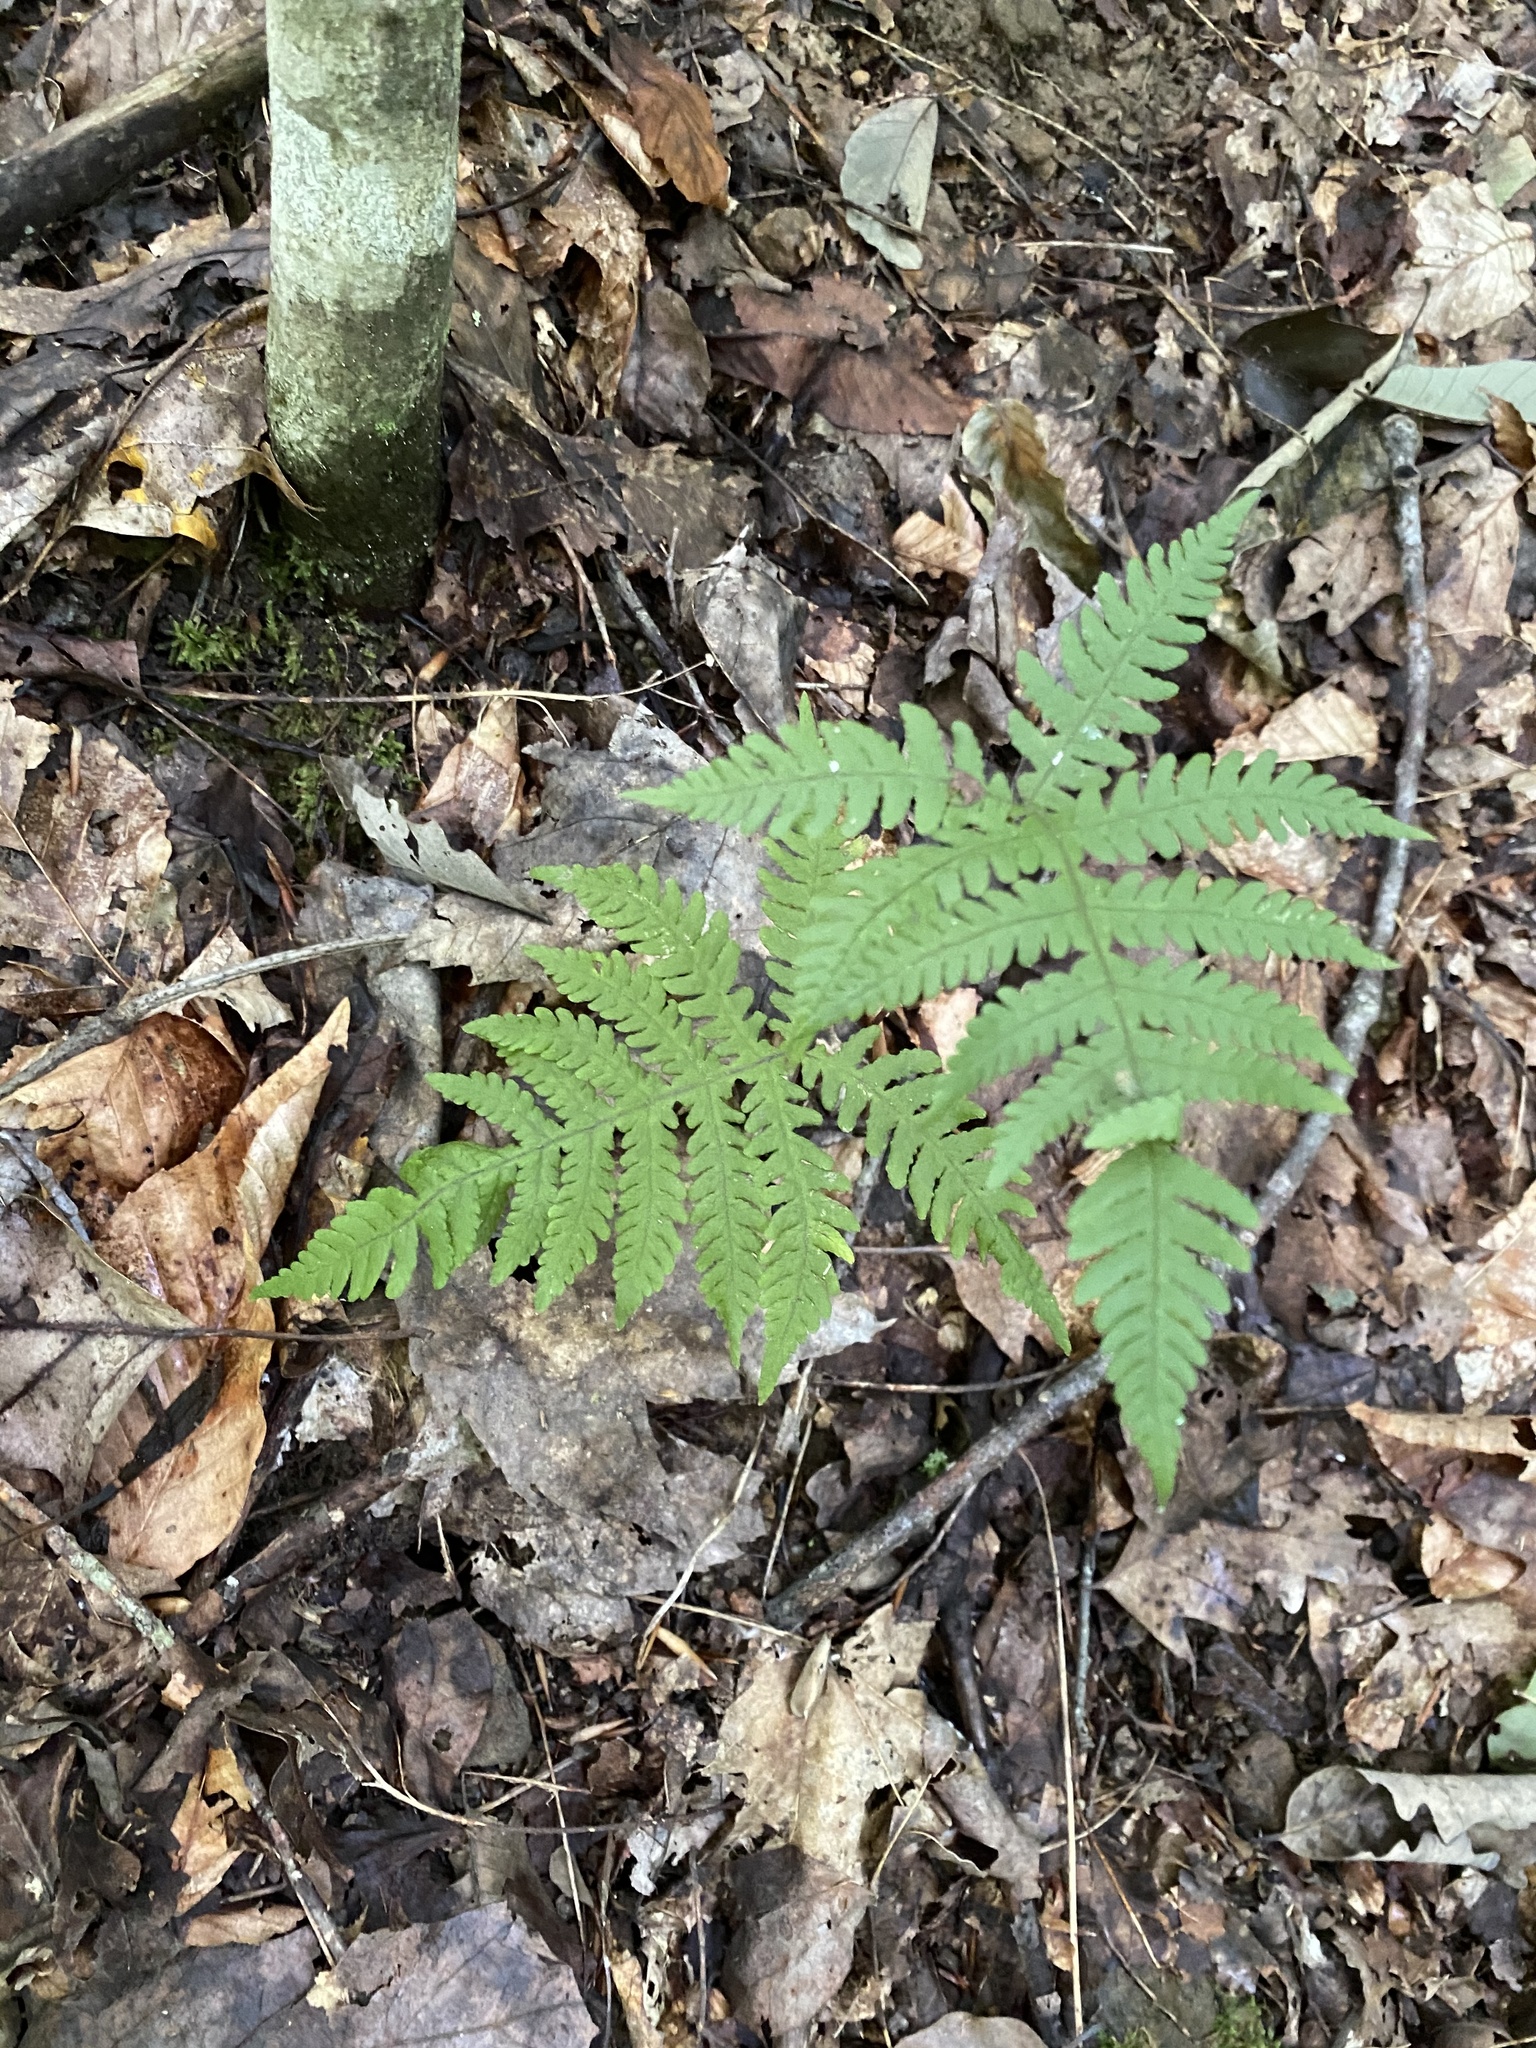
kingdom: Plantae
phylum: Tracheophyta
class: Polypodiopsida
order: Polypodiales
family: Thelypteridaceae
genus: Phegopteris
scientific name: Phegopteris hexagonoptera
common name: Broad beech fern
